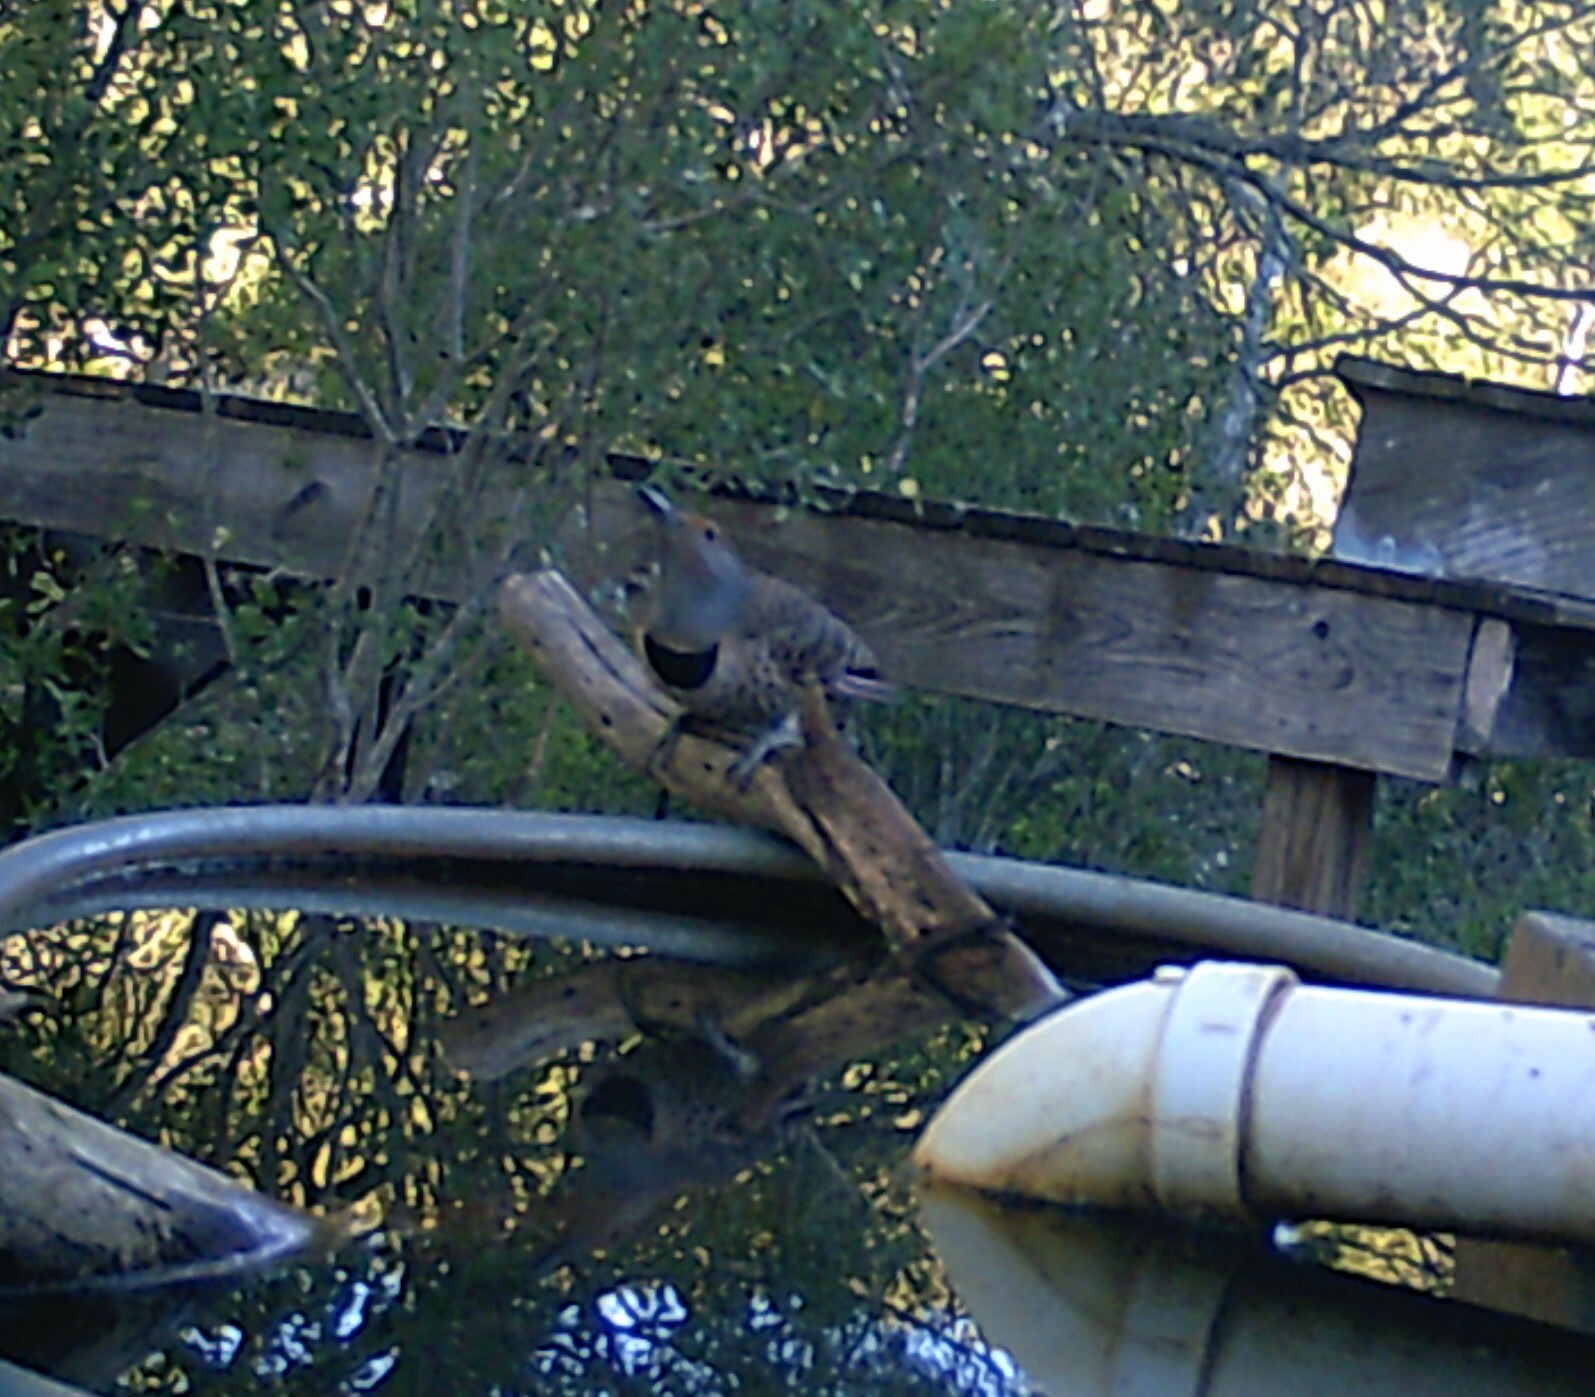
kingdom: Animalia
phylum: Chordata
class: Aves
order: Piciformes
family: Picidae
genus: Colaptes
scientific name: Colaptes auratus
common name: Northern flicker
